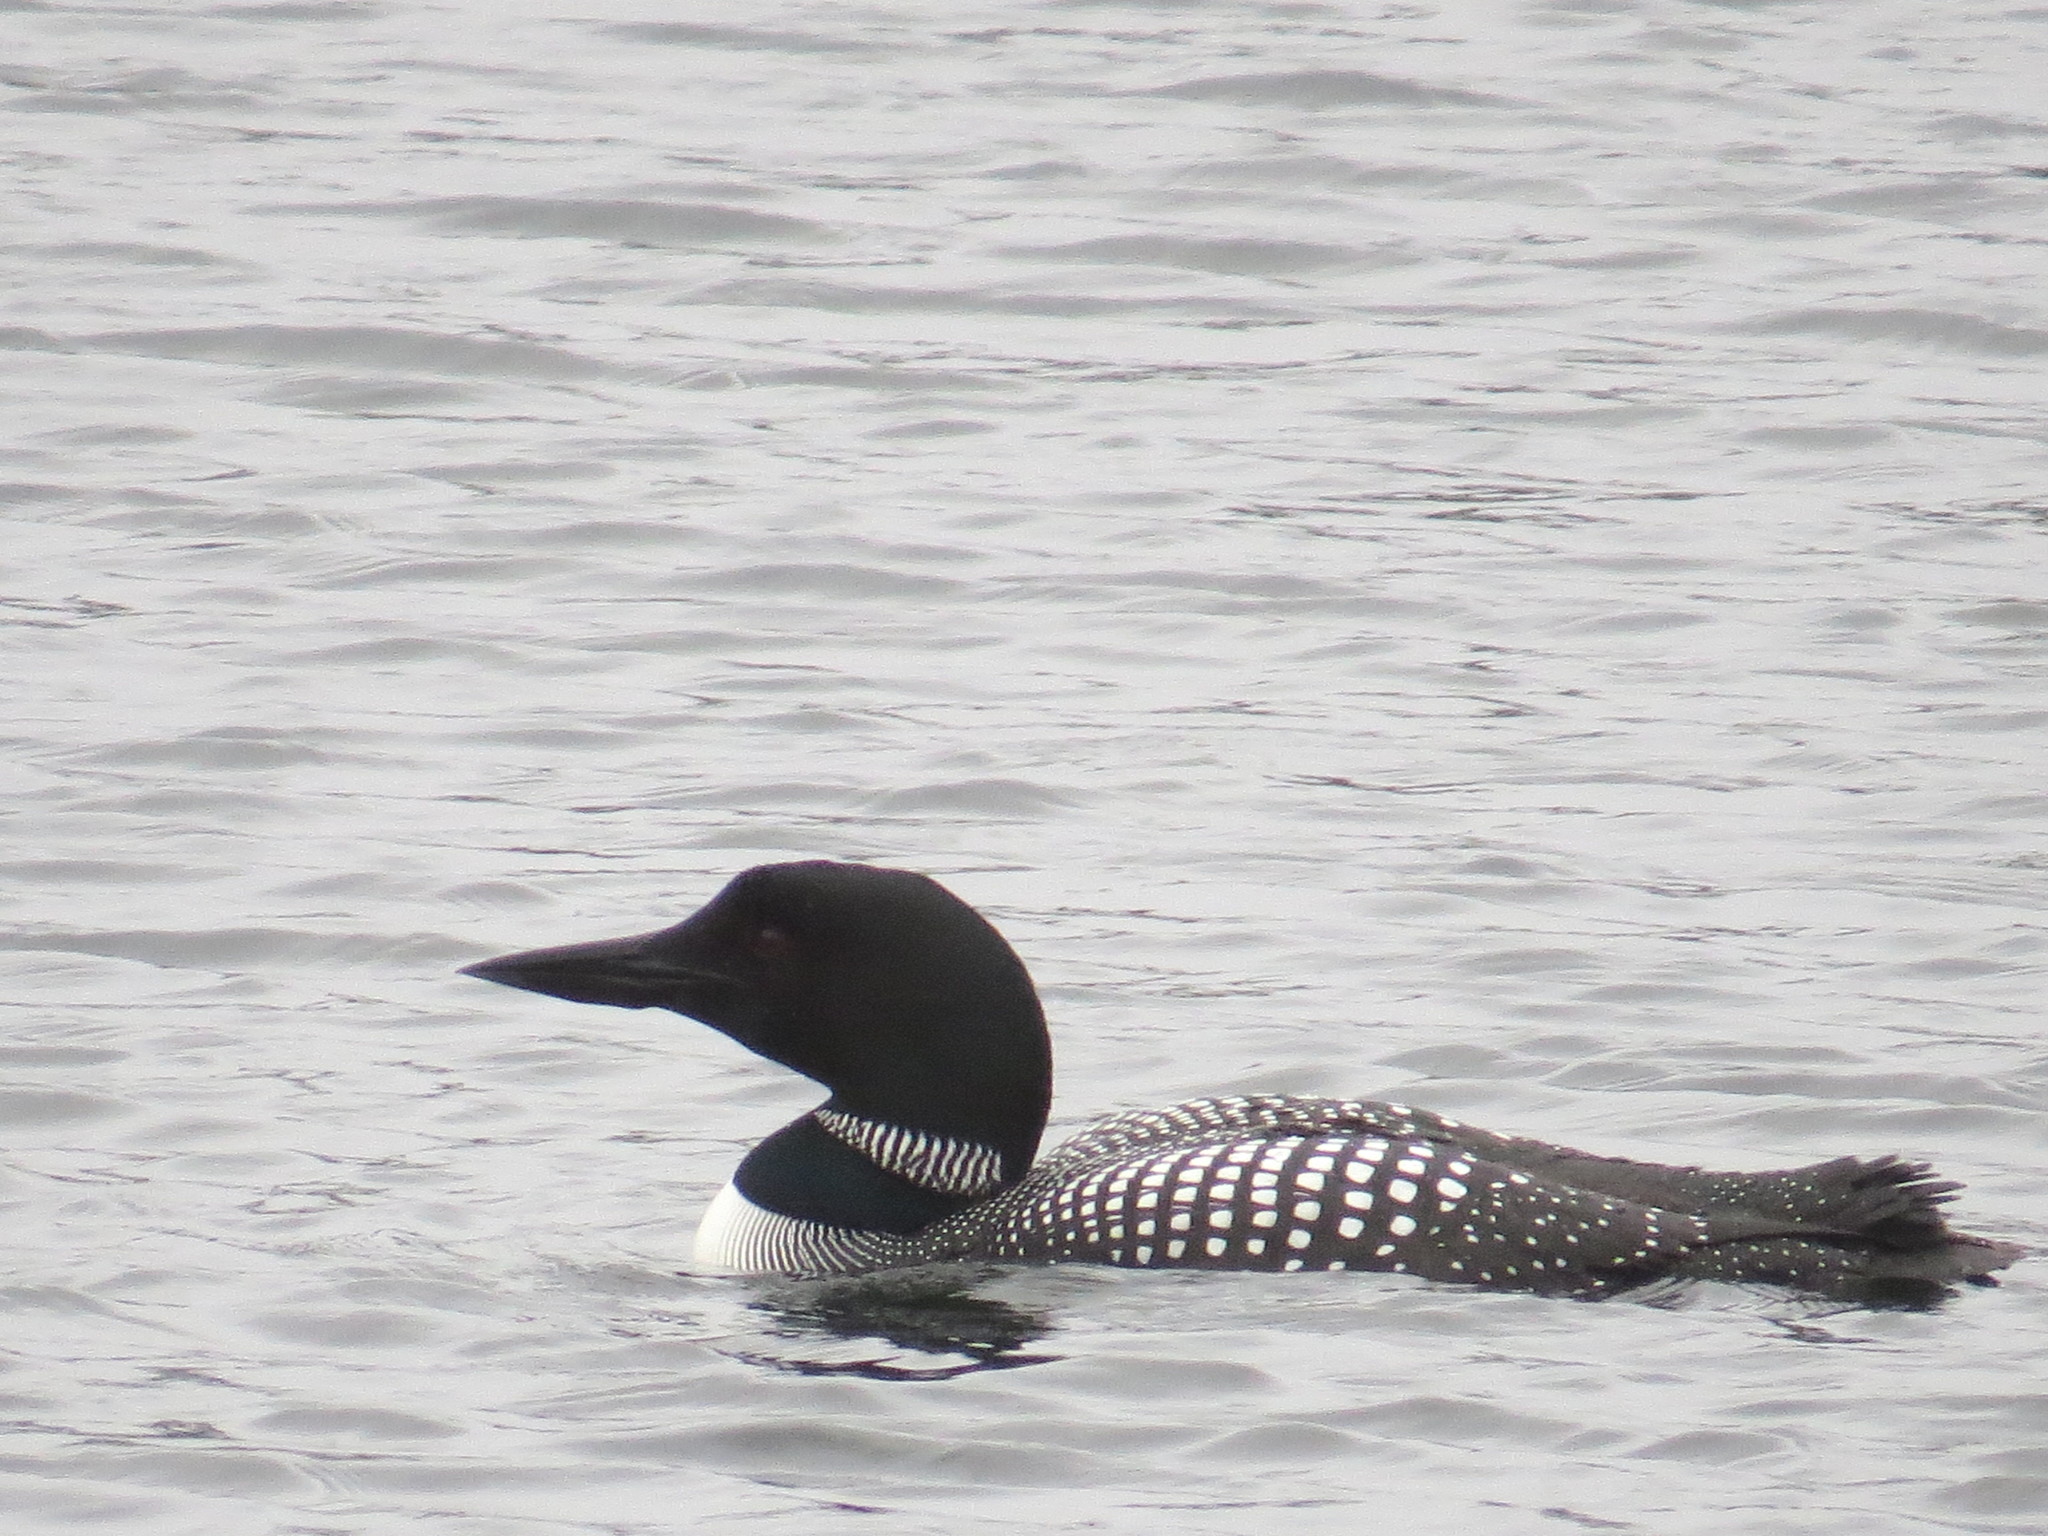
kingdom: Animalia
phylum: Chordata
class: Aves
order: Gaviiformes
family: Gaviidae
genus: Gavia
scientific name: Gavia immer
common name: Common loon
